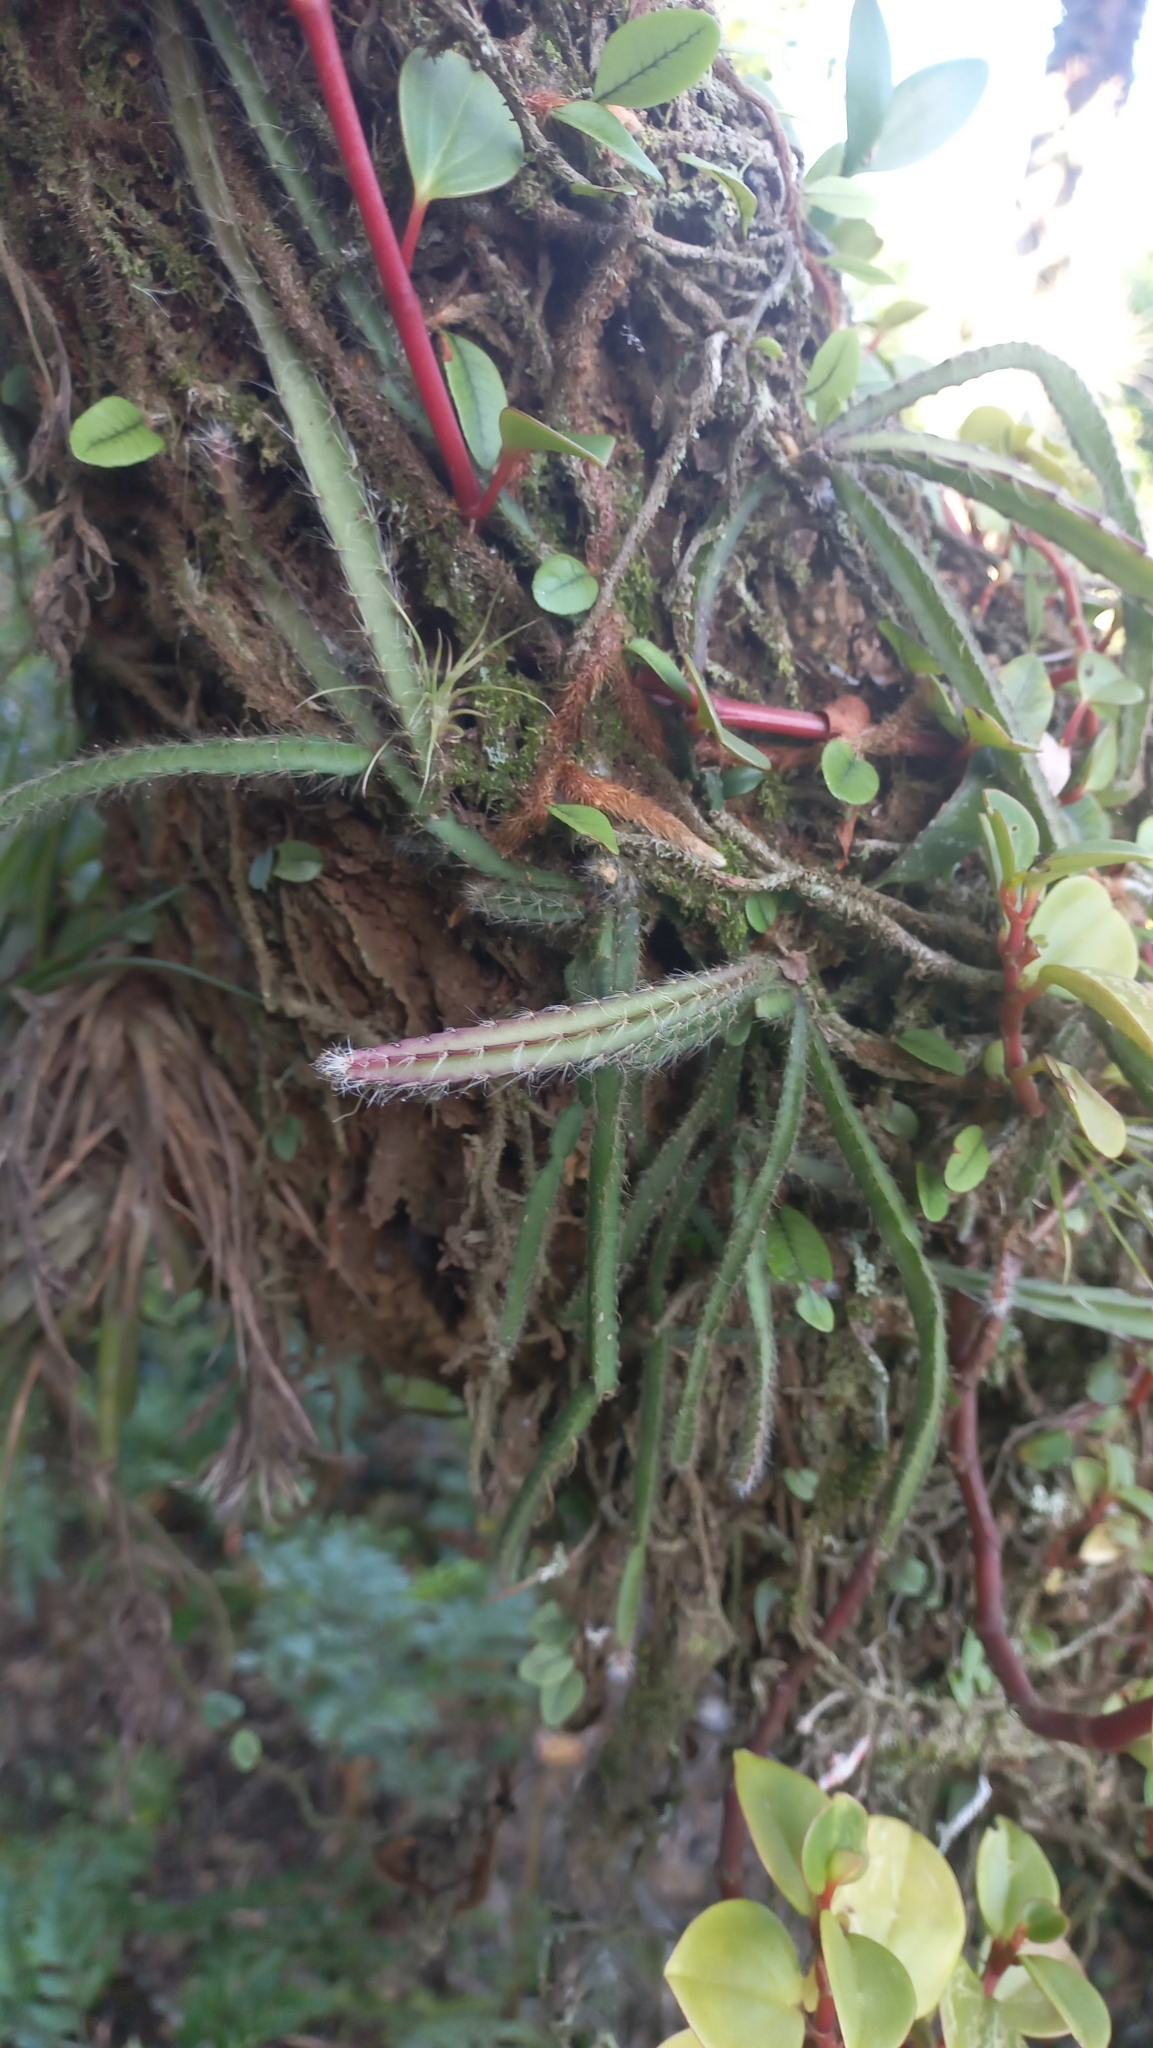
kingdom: Plantae
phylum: Tracheophyta
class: Magnoliopsida
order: Caryophyllales
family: Cactaceae
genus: Lepismium
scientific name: Lepismium cruciforme
